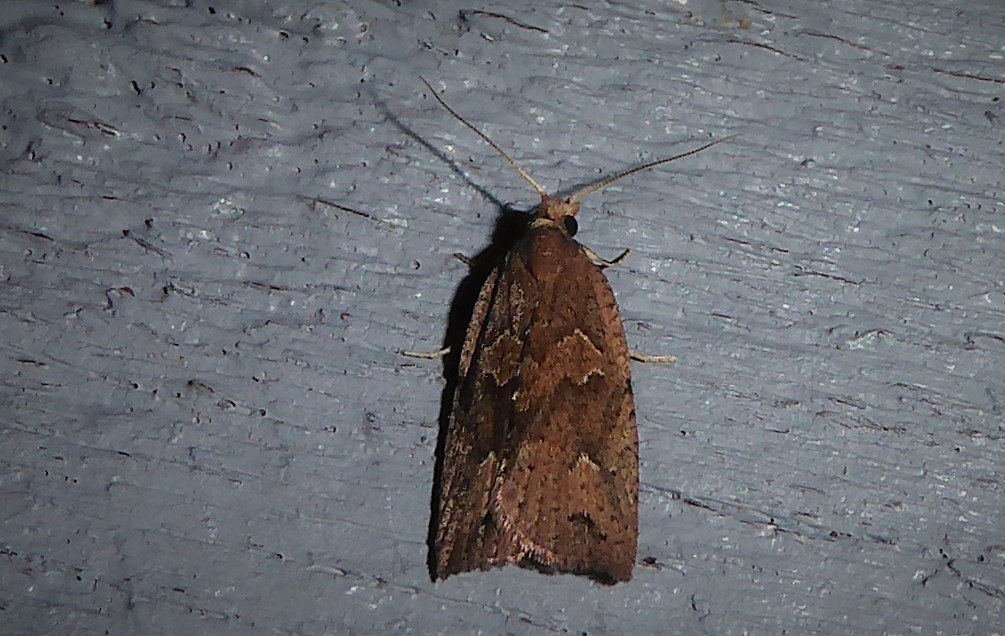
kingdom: Animalia
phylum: Arthropoda
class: Insecta
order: Lepidoptera
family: Tortricidae
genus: Planotortrix
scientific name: Planotortrix notophaea
